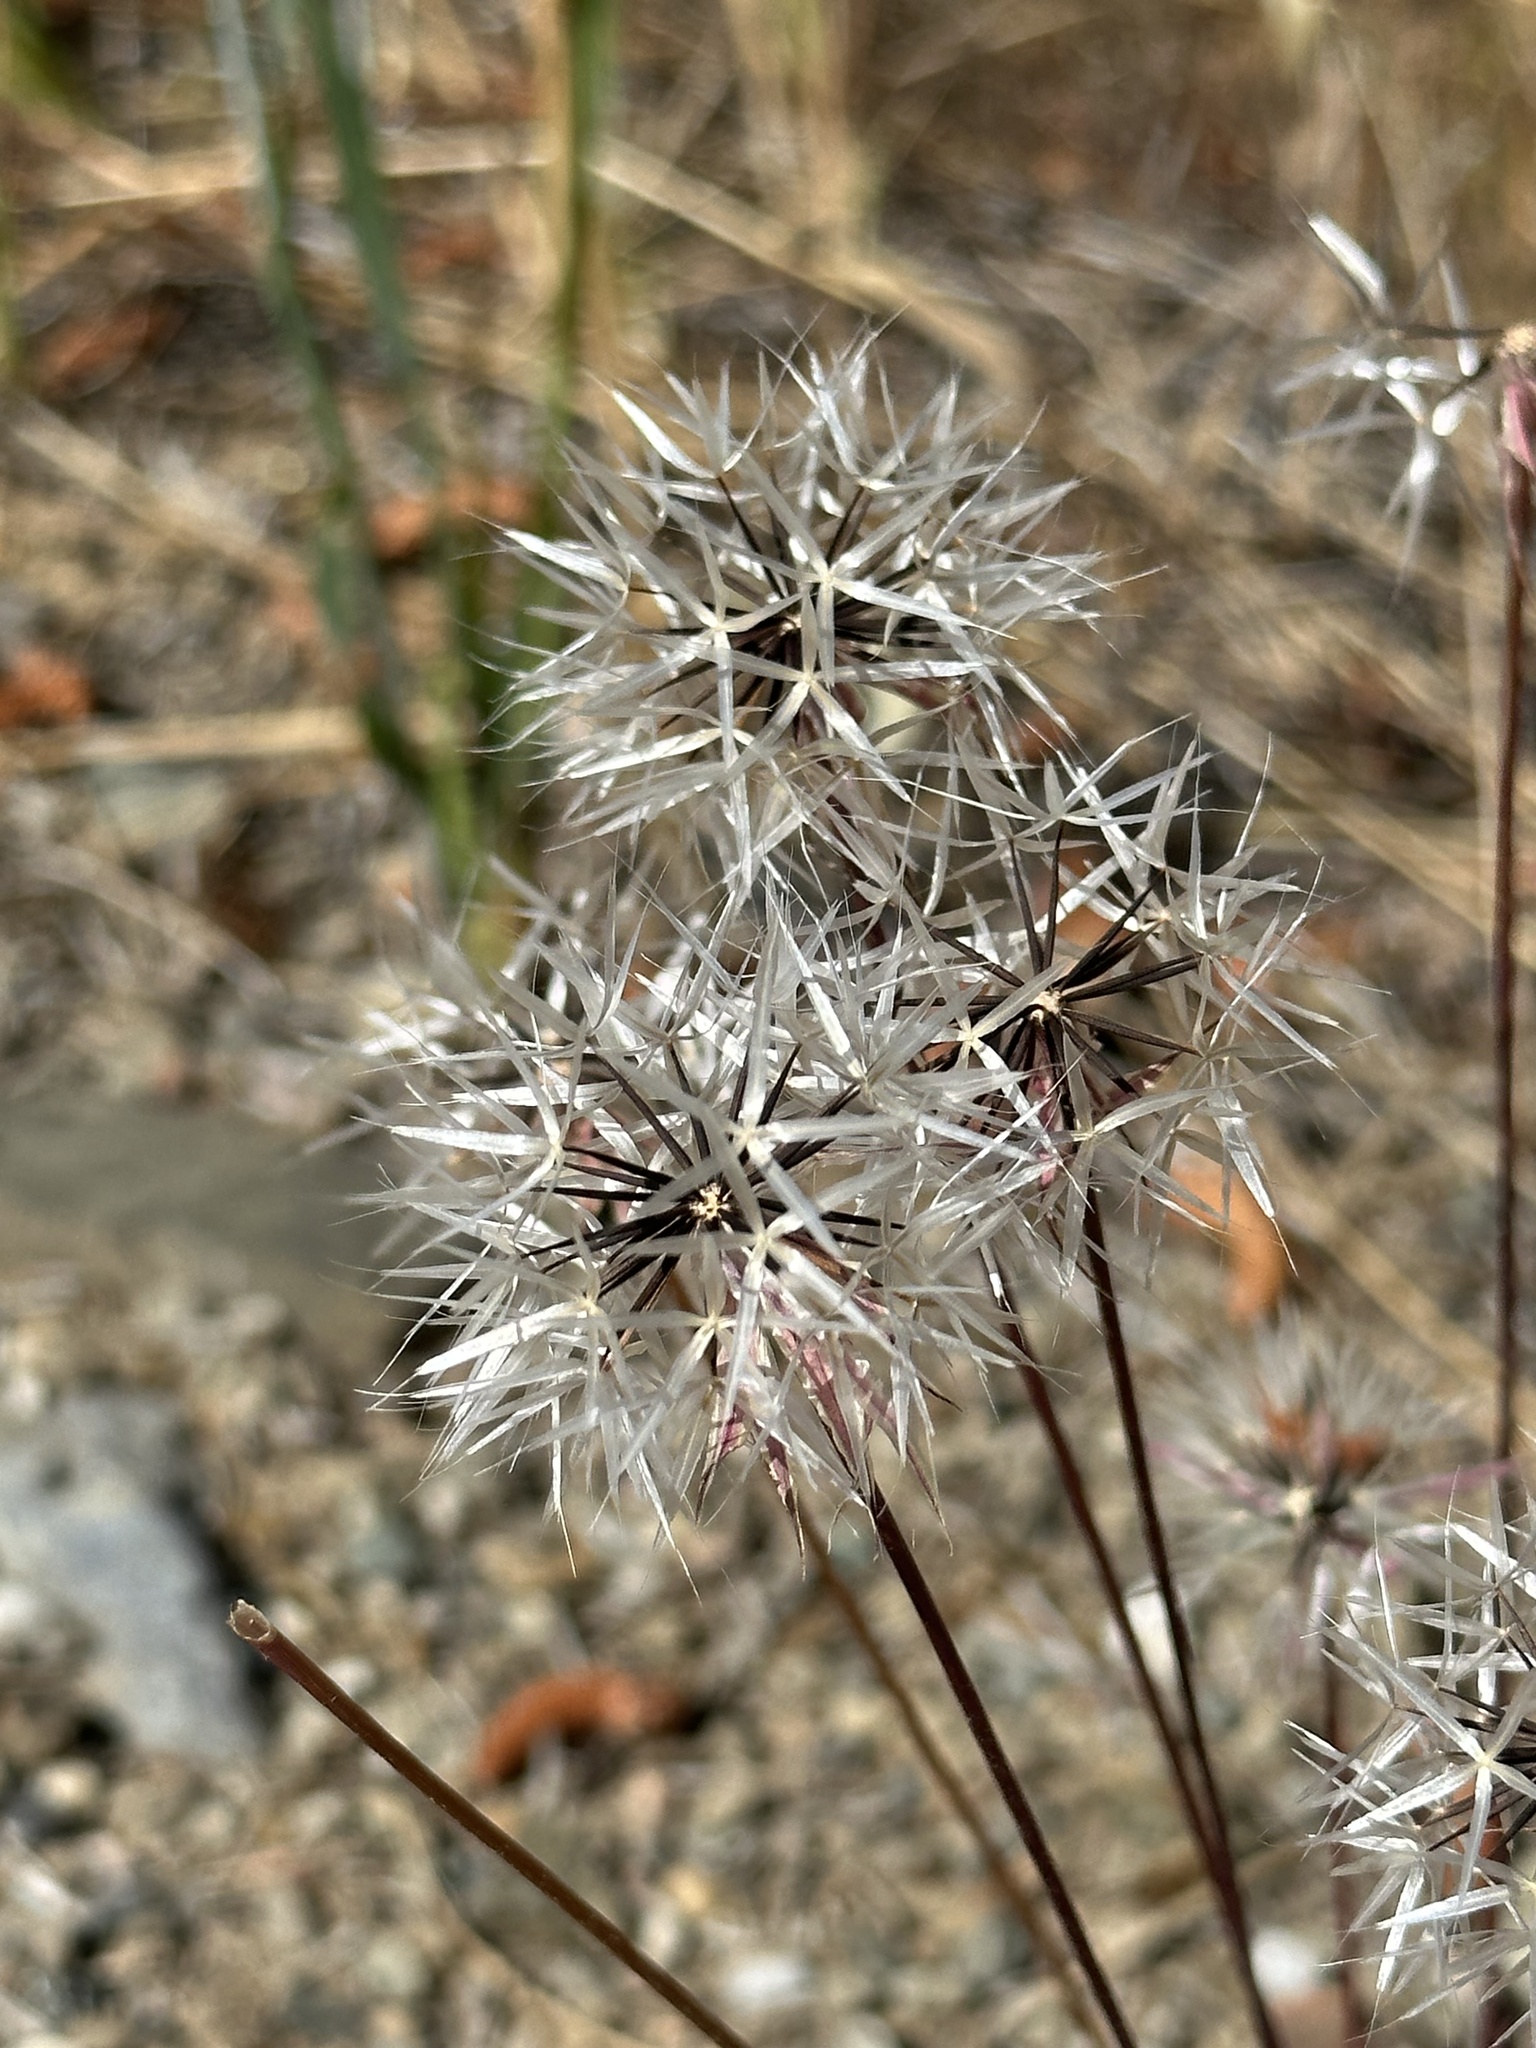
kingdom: Plantae
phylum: Tracheophyta
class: Magnoliopsida
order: Asterales
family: Asteraceae
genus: Microseris
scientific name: Microseris lindleyi
